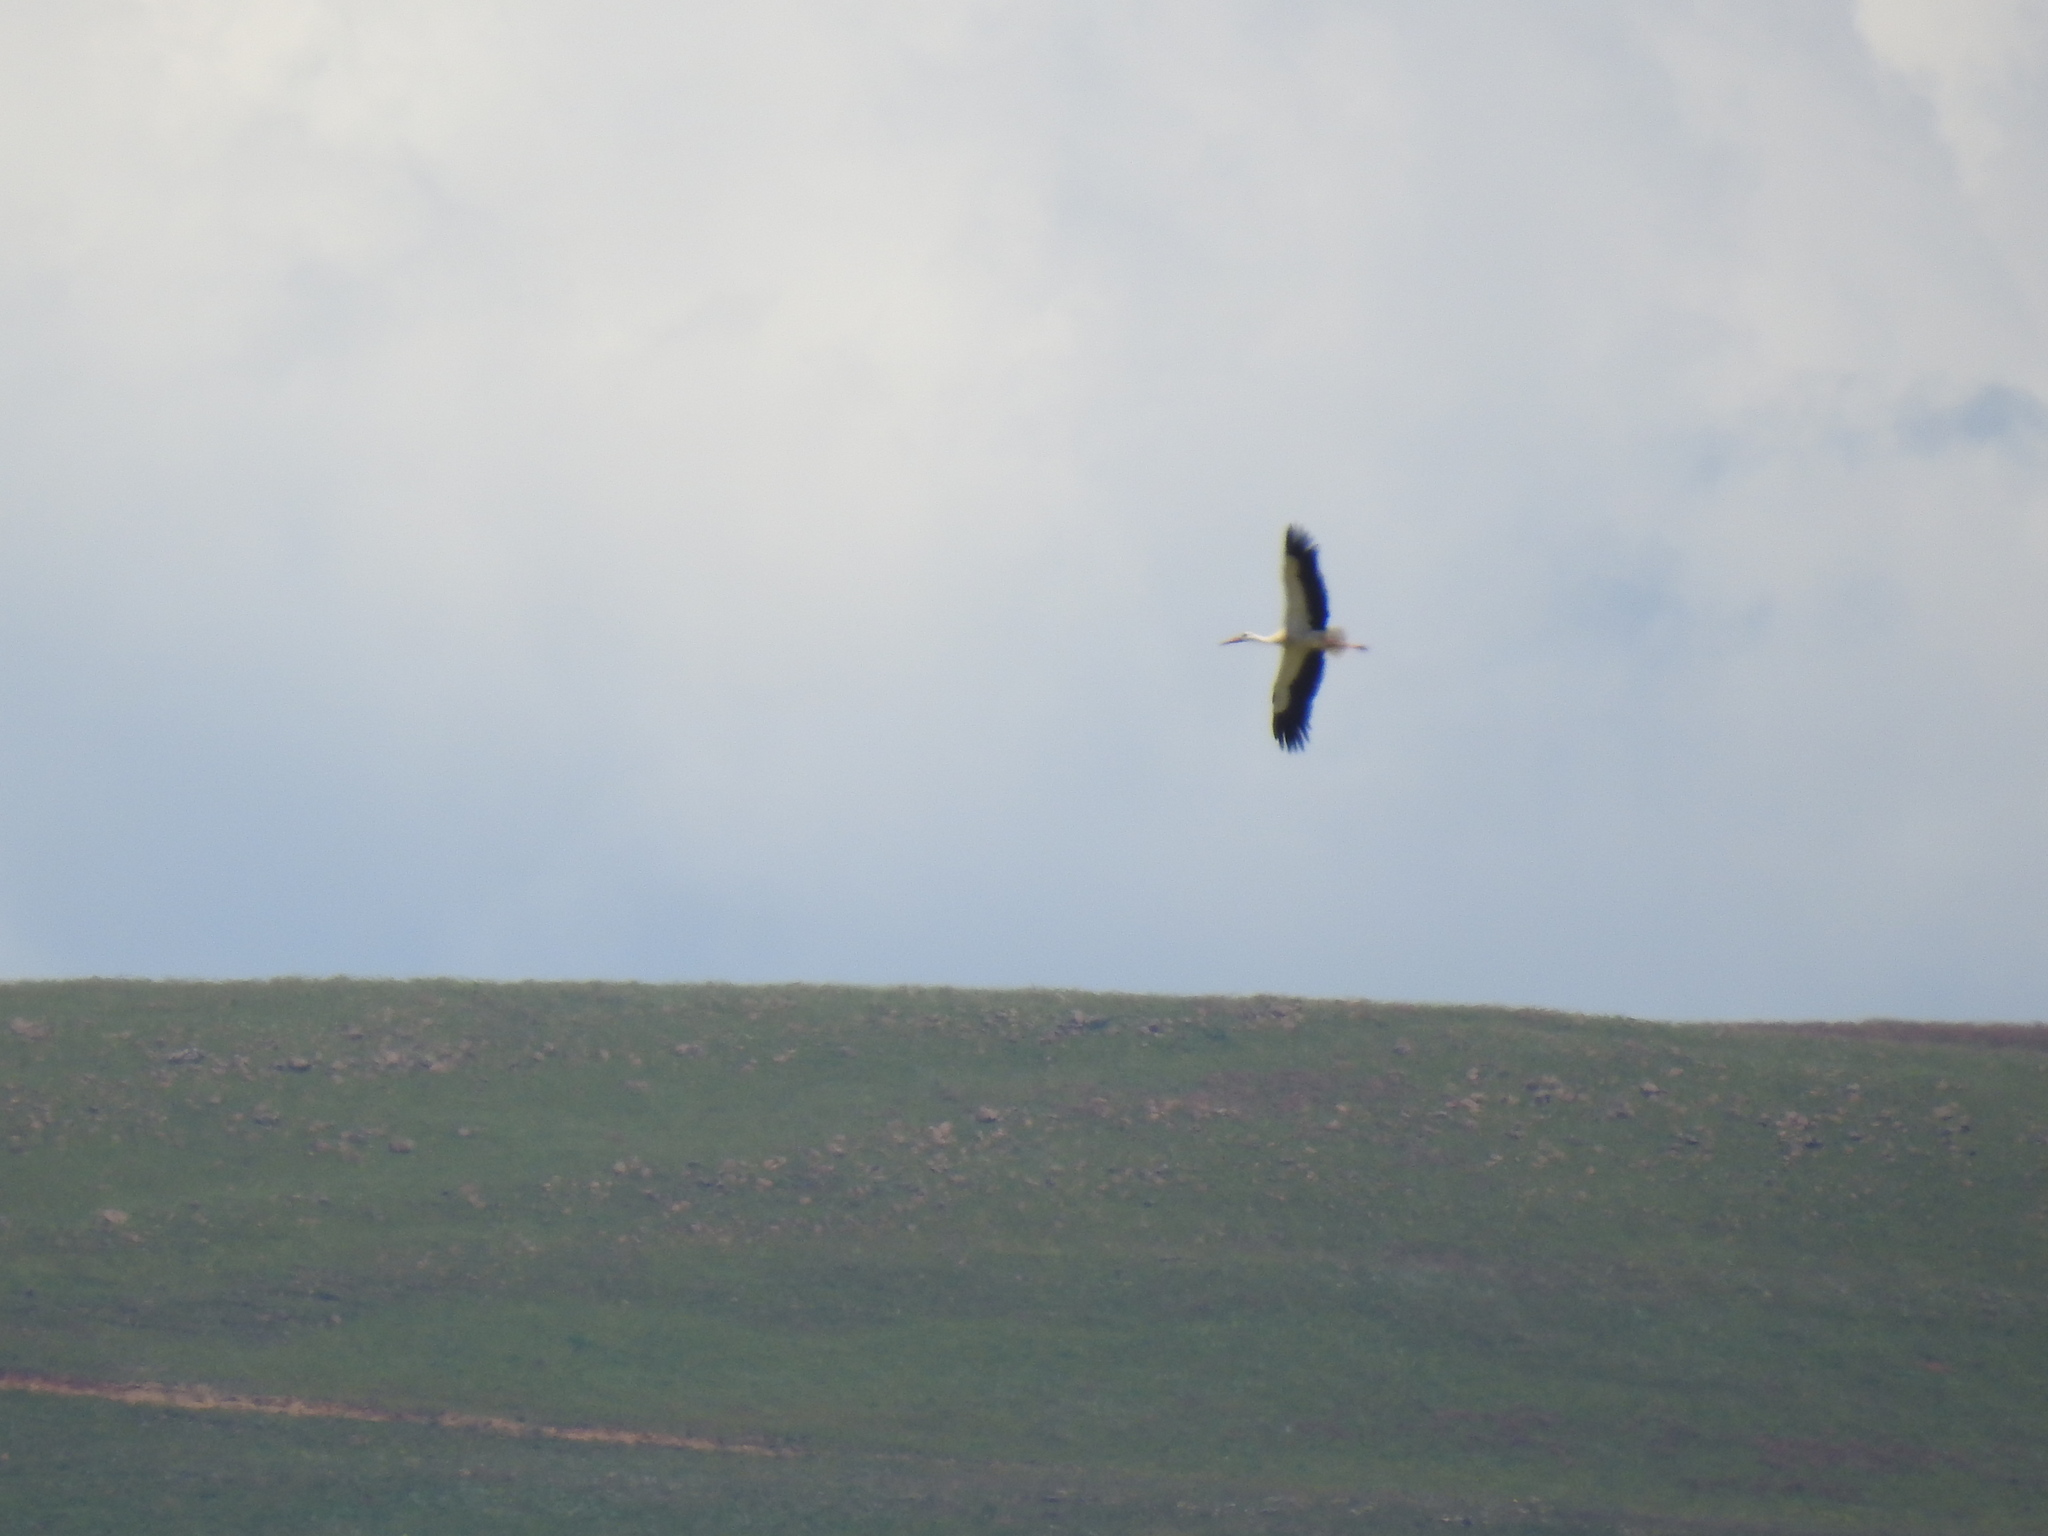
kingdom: Animalia
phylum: Chordata
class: Aves
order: Ciconiiformes
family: Ciconiidae
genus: Ciconia
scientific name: Ciconia ciconia
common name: White stork
